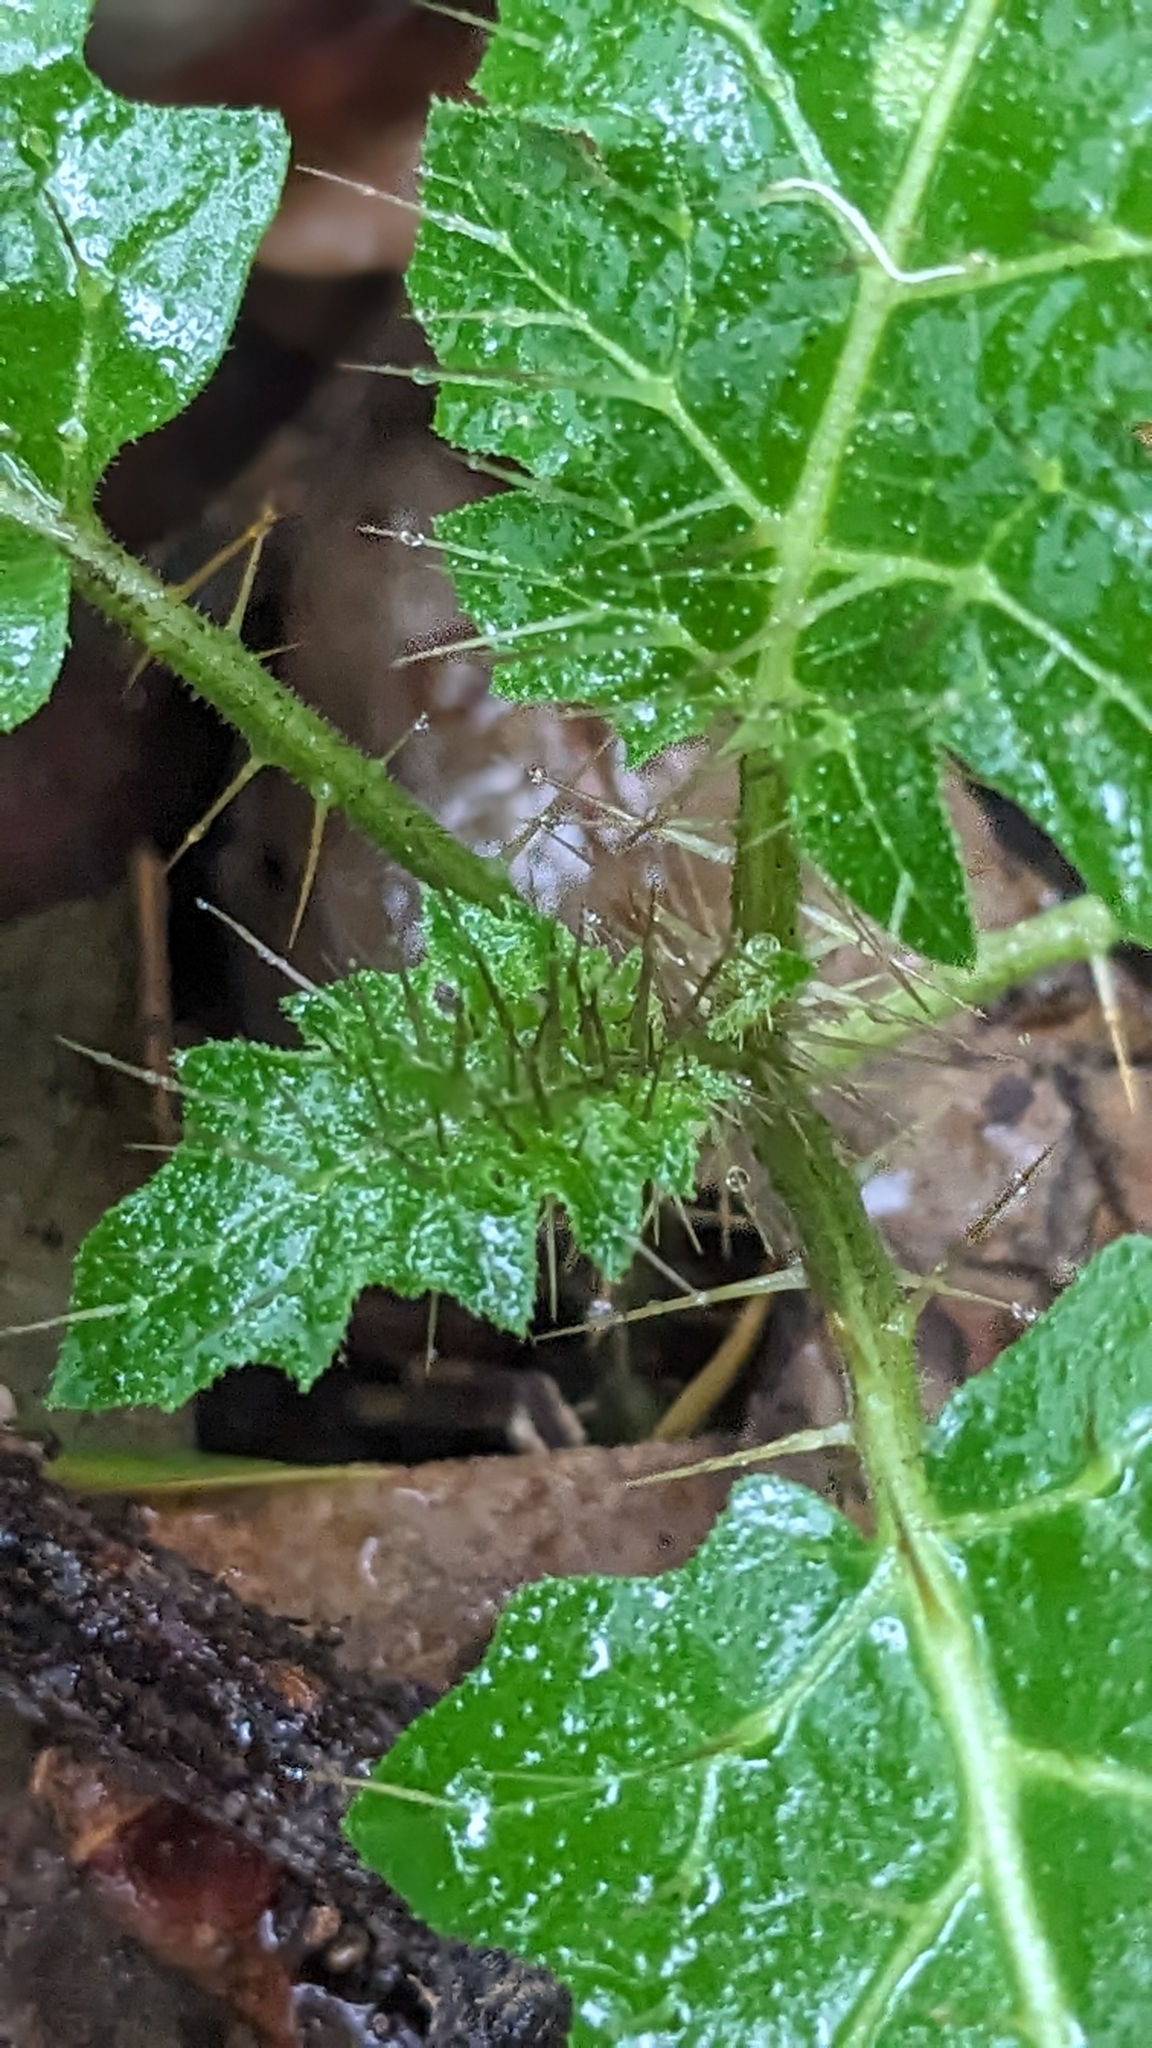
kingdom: Plantae
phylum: Tracheophyta
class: Magnoliopsida
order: Solanales
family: Solanaceae
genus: Solanum
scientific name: Solanum prinophyllum
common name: Forest nightshade
